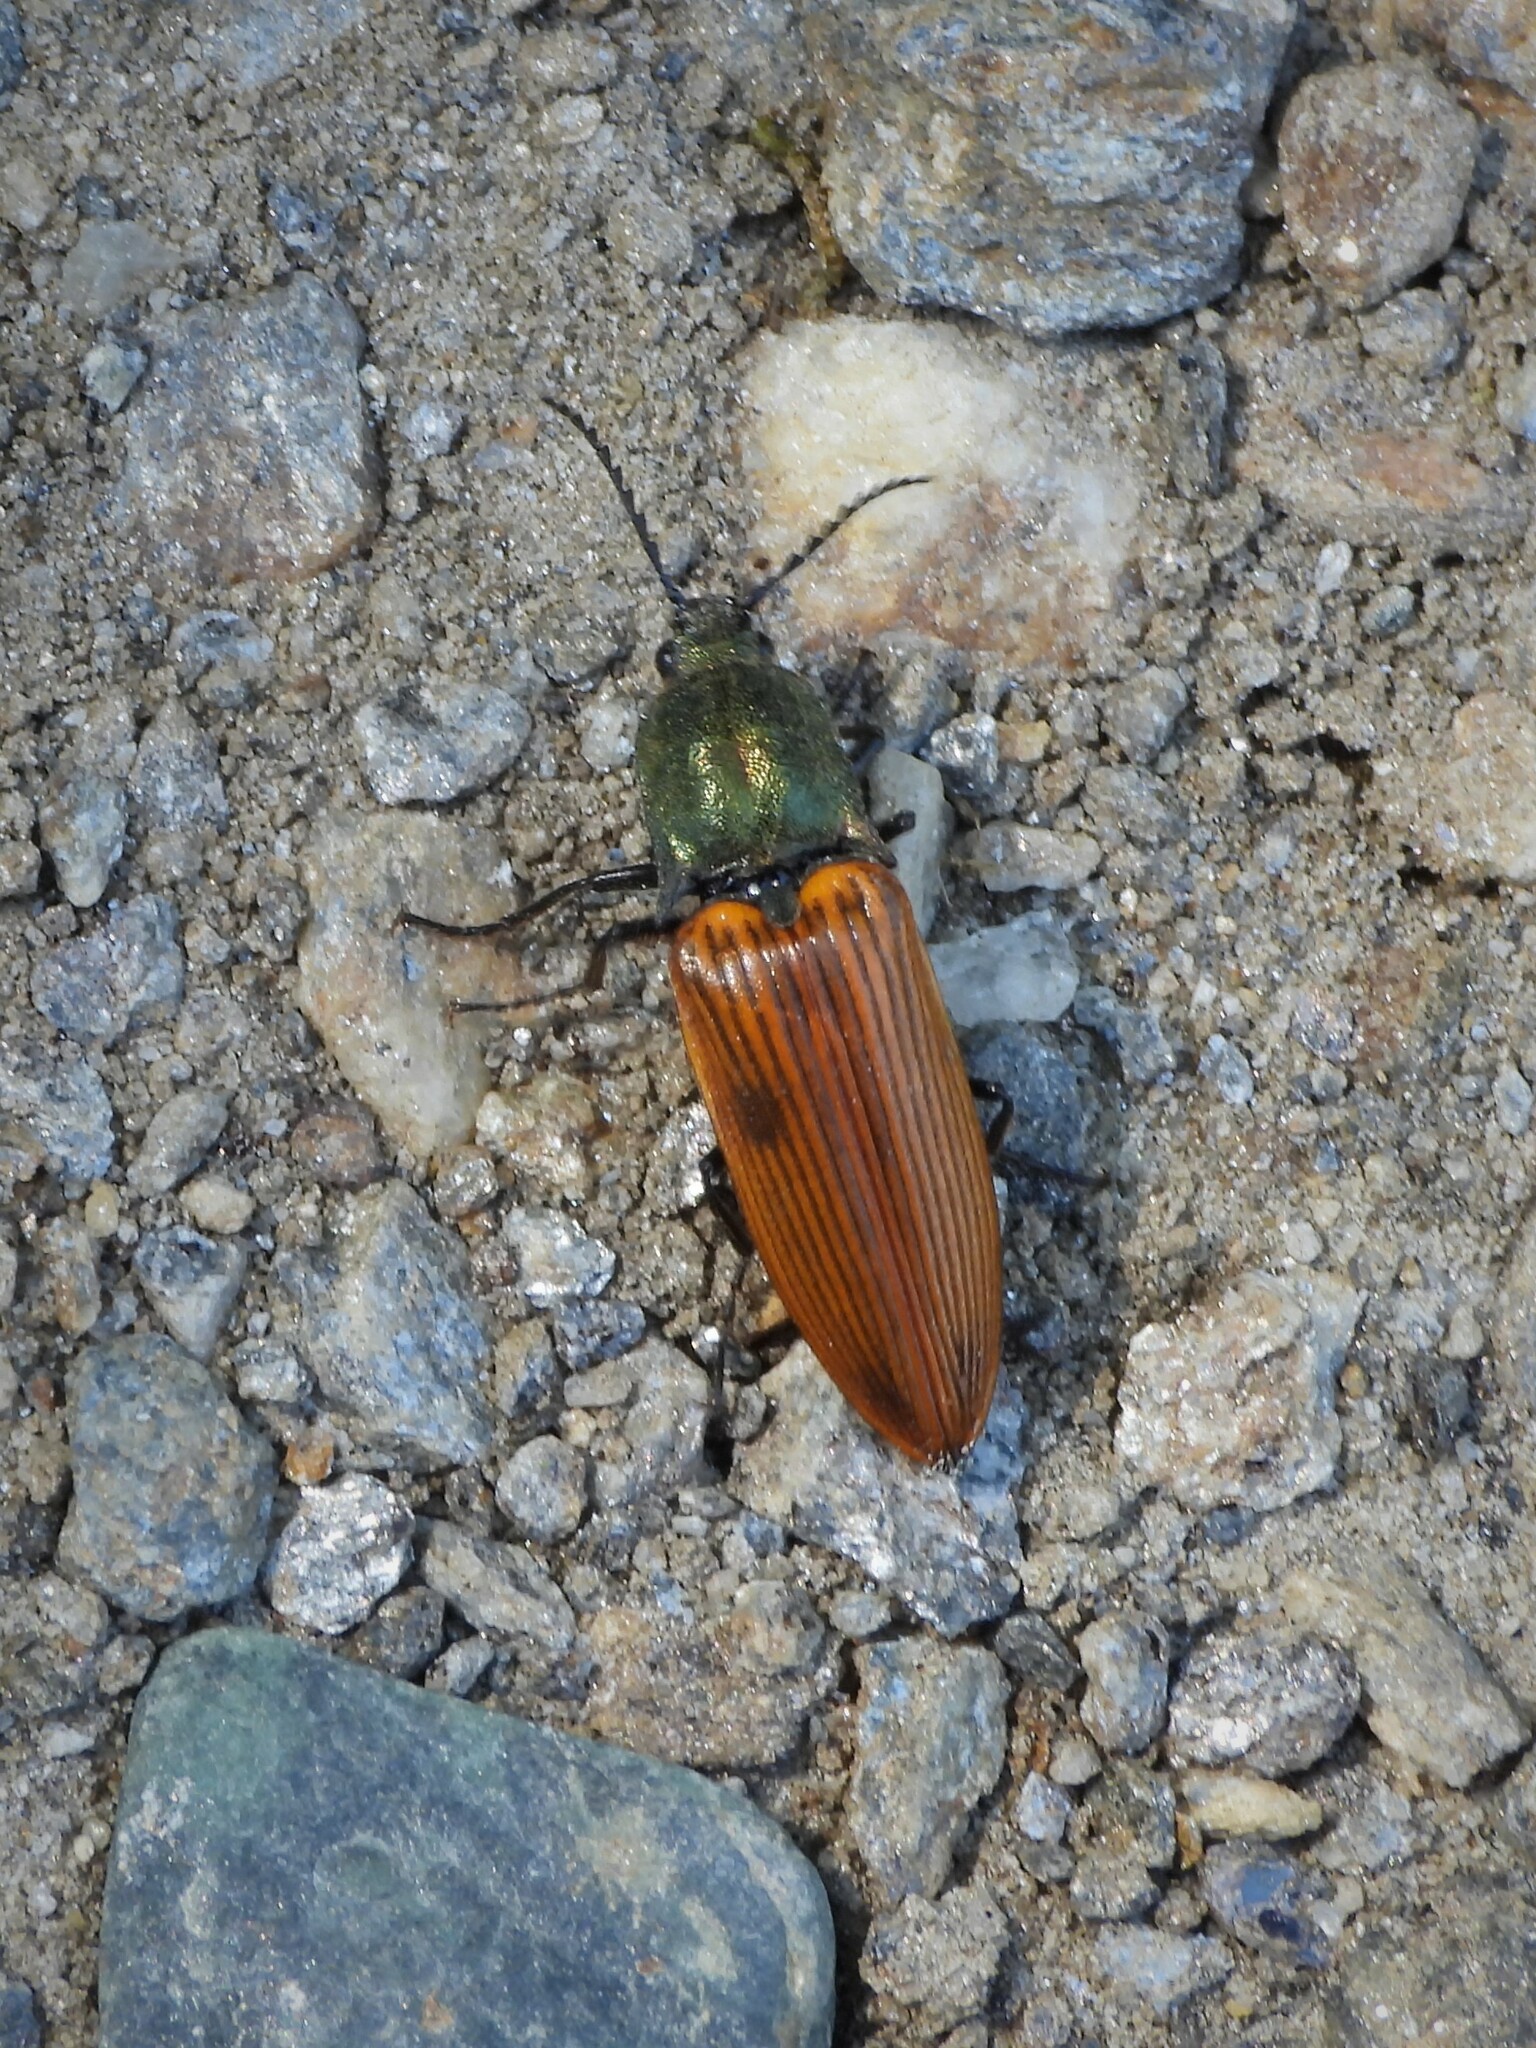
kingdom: Animalia
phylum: Arthropoda
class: Insecta
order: Coleoptera
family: Elateridae
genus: Ctenicera
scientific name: Ctenicera virens
